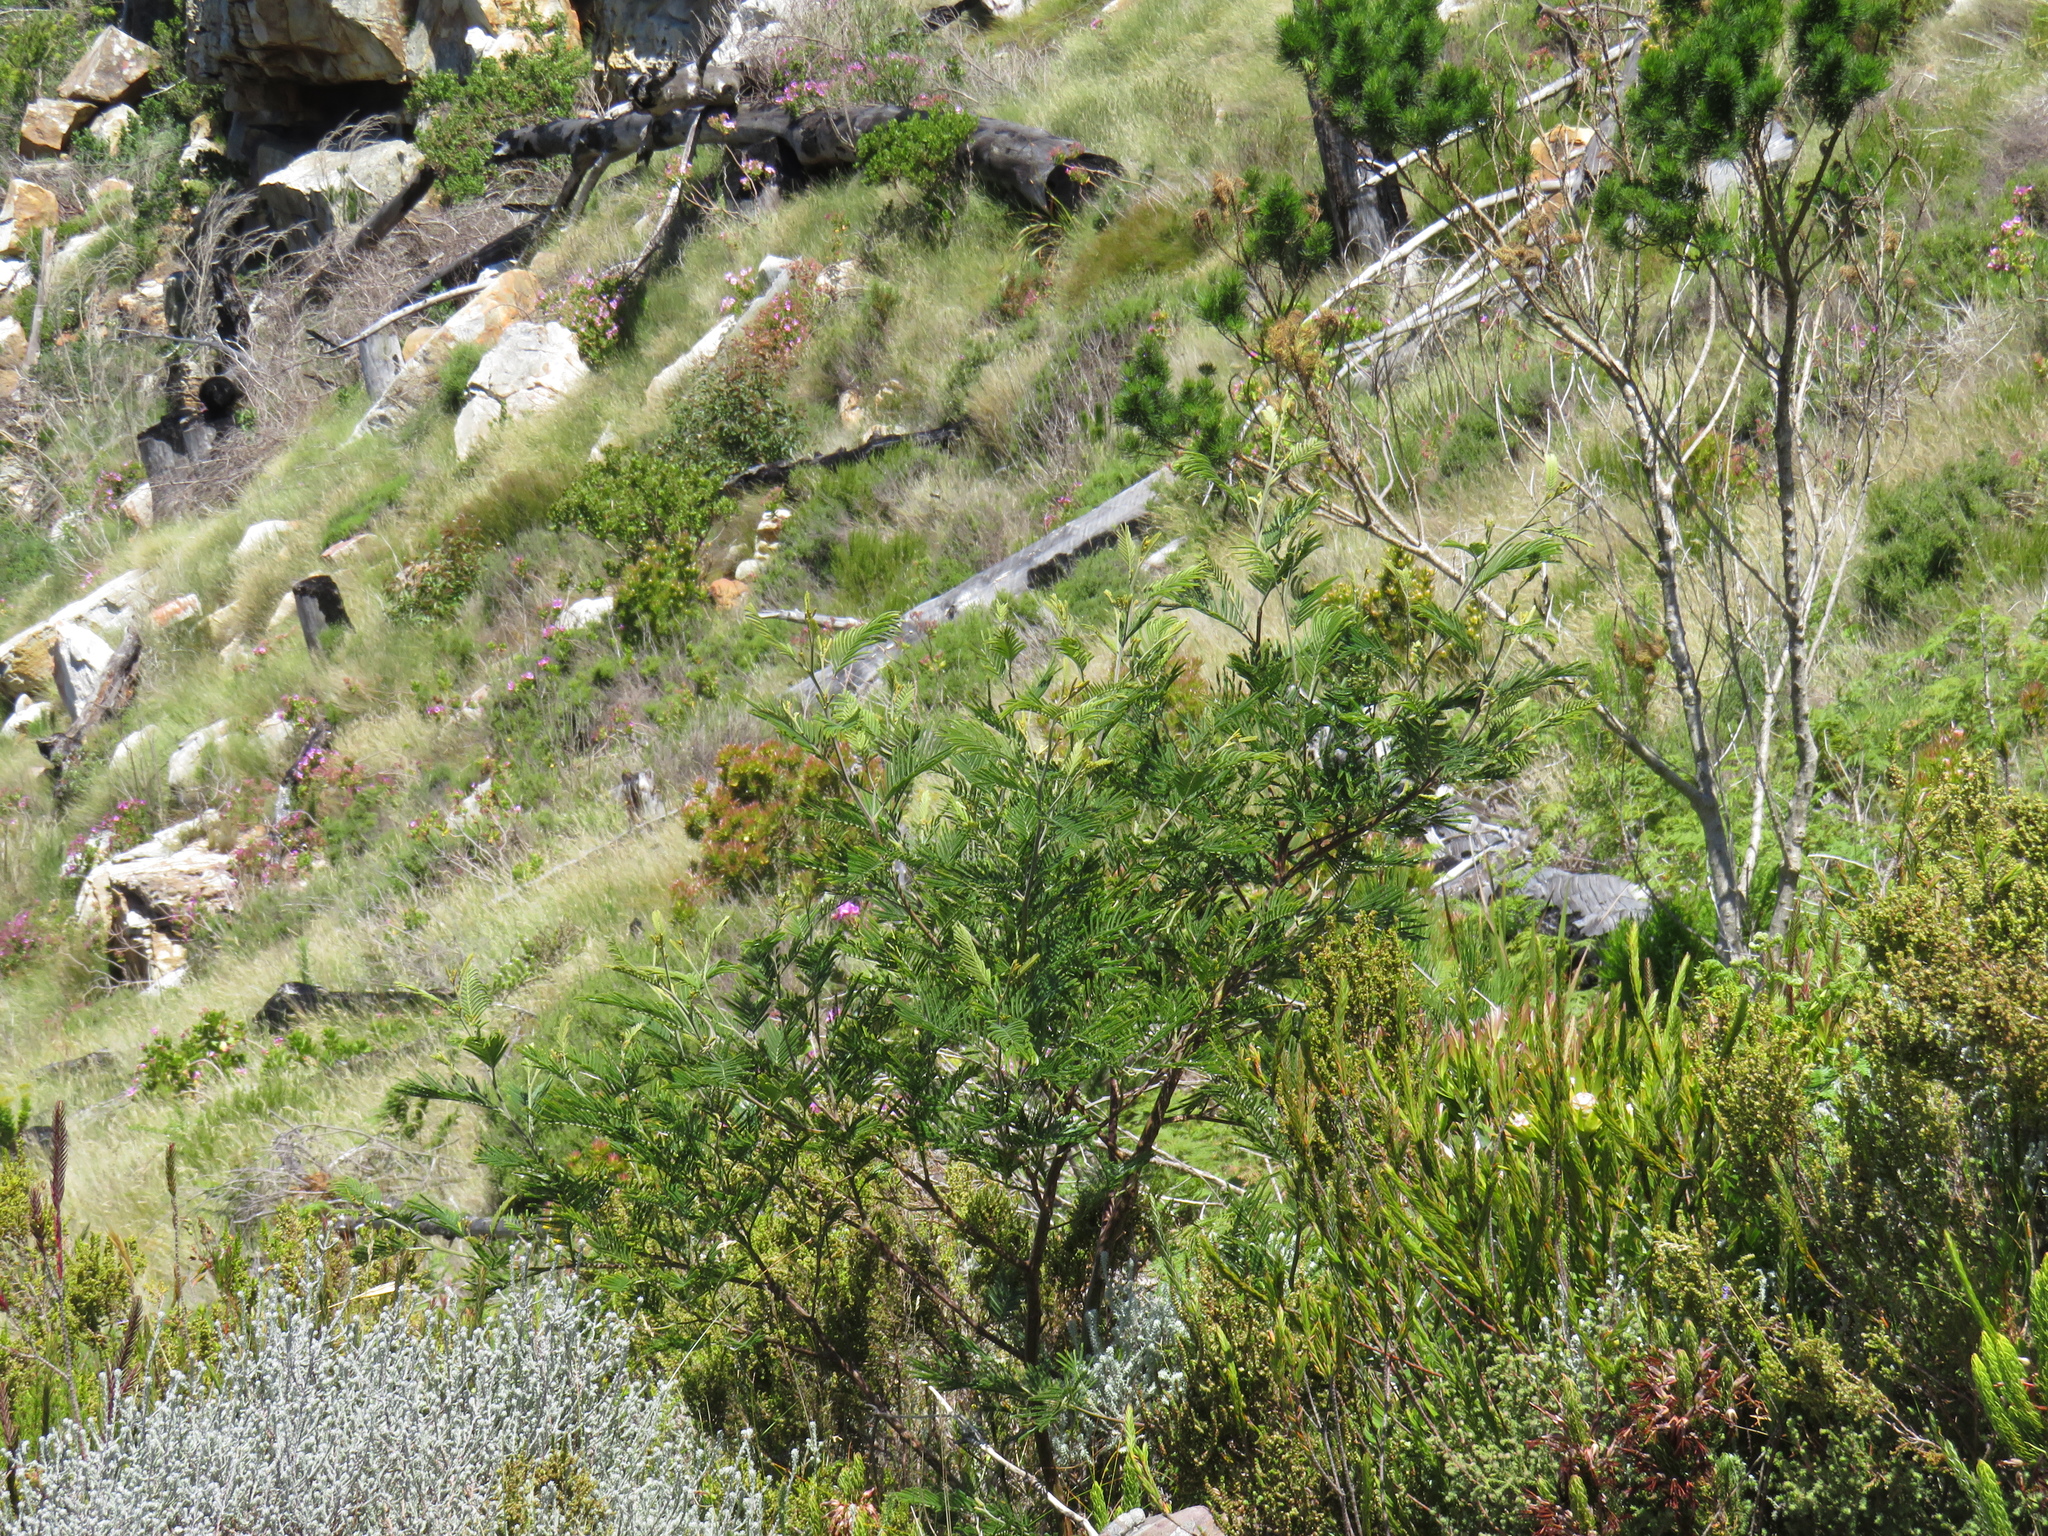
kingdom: Plantae
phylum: Tracheophyta
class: Magnoliopsida
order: Fabales
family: Fabaceae
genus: Acacia
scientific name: Acacia mearnsii
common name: Black wattle
